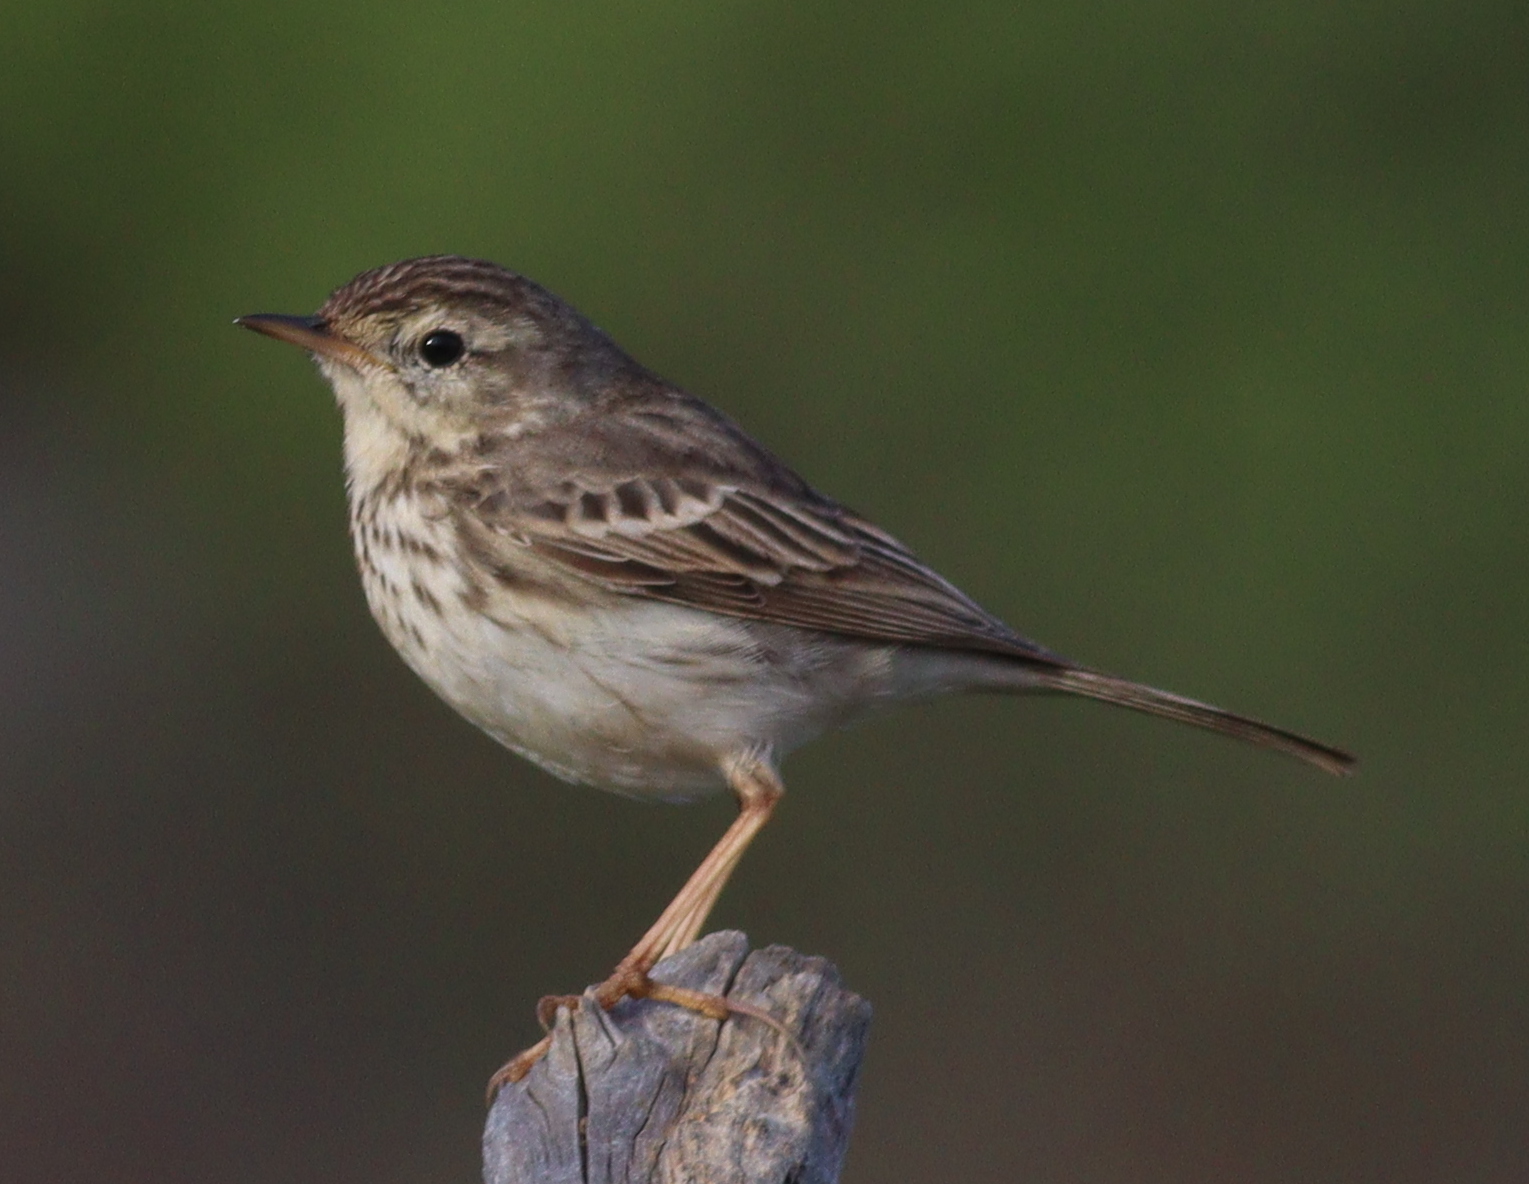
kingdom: Animalia
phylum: Chordata
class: Aves
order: Passeriformes
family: Motacillidae
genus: Anthus
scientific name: Anthus berthelotii
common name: Berthelot's pipit
